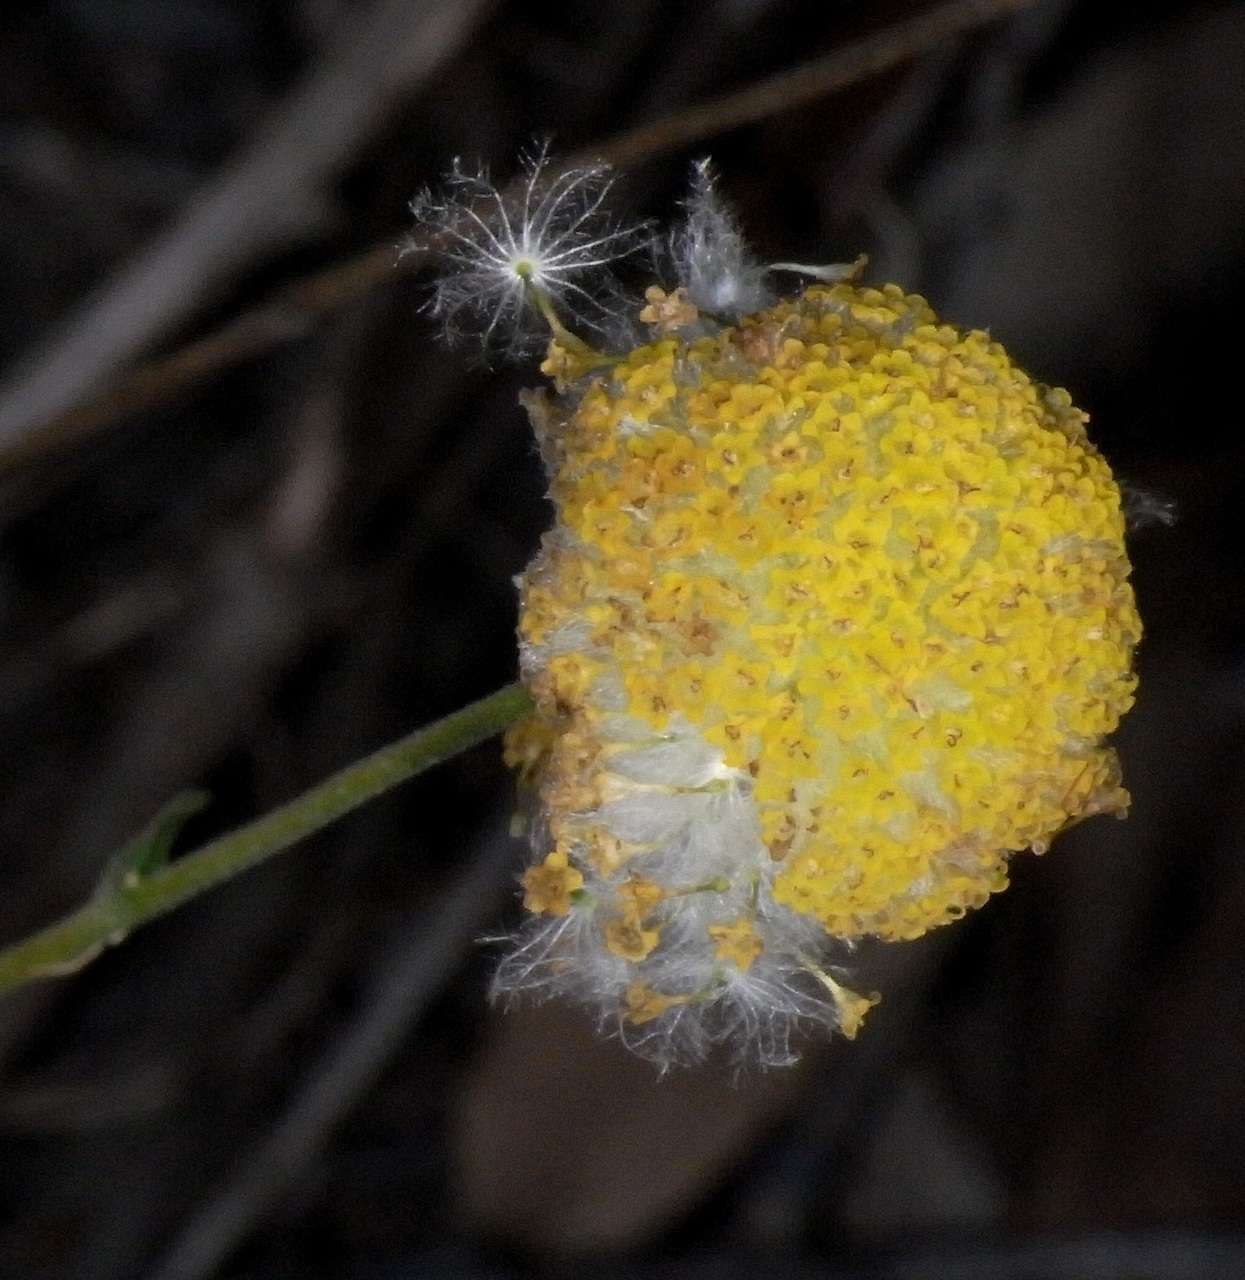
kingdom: Plantae
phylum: Tracheophyta
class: Magnoliopsida
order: Asterales
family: Asteraceae
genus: Craspedia
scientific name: Craspedia variabilis
